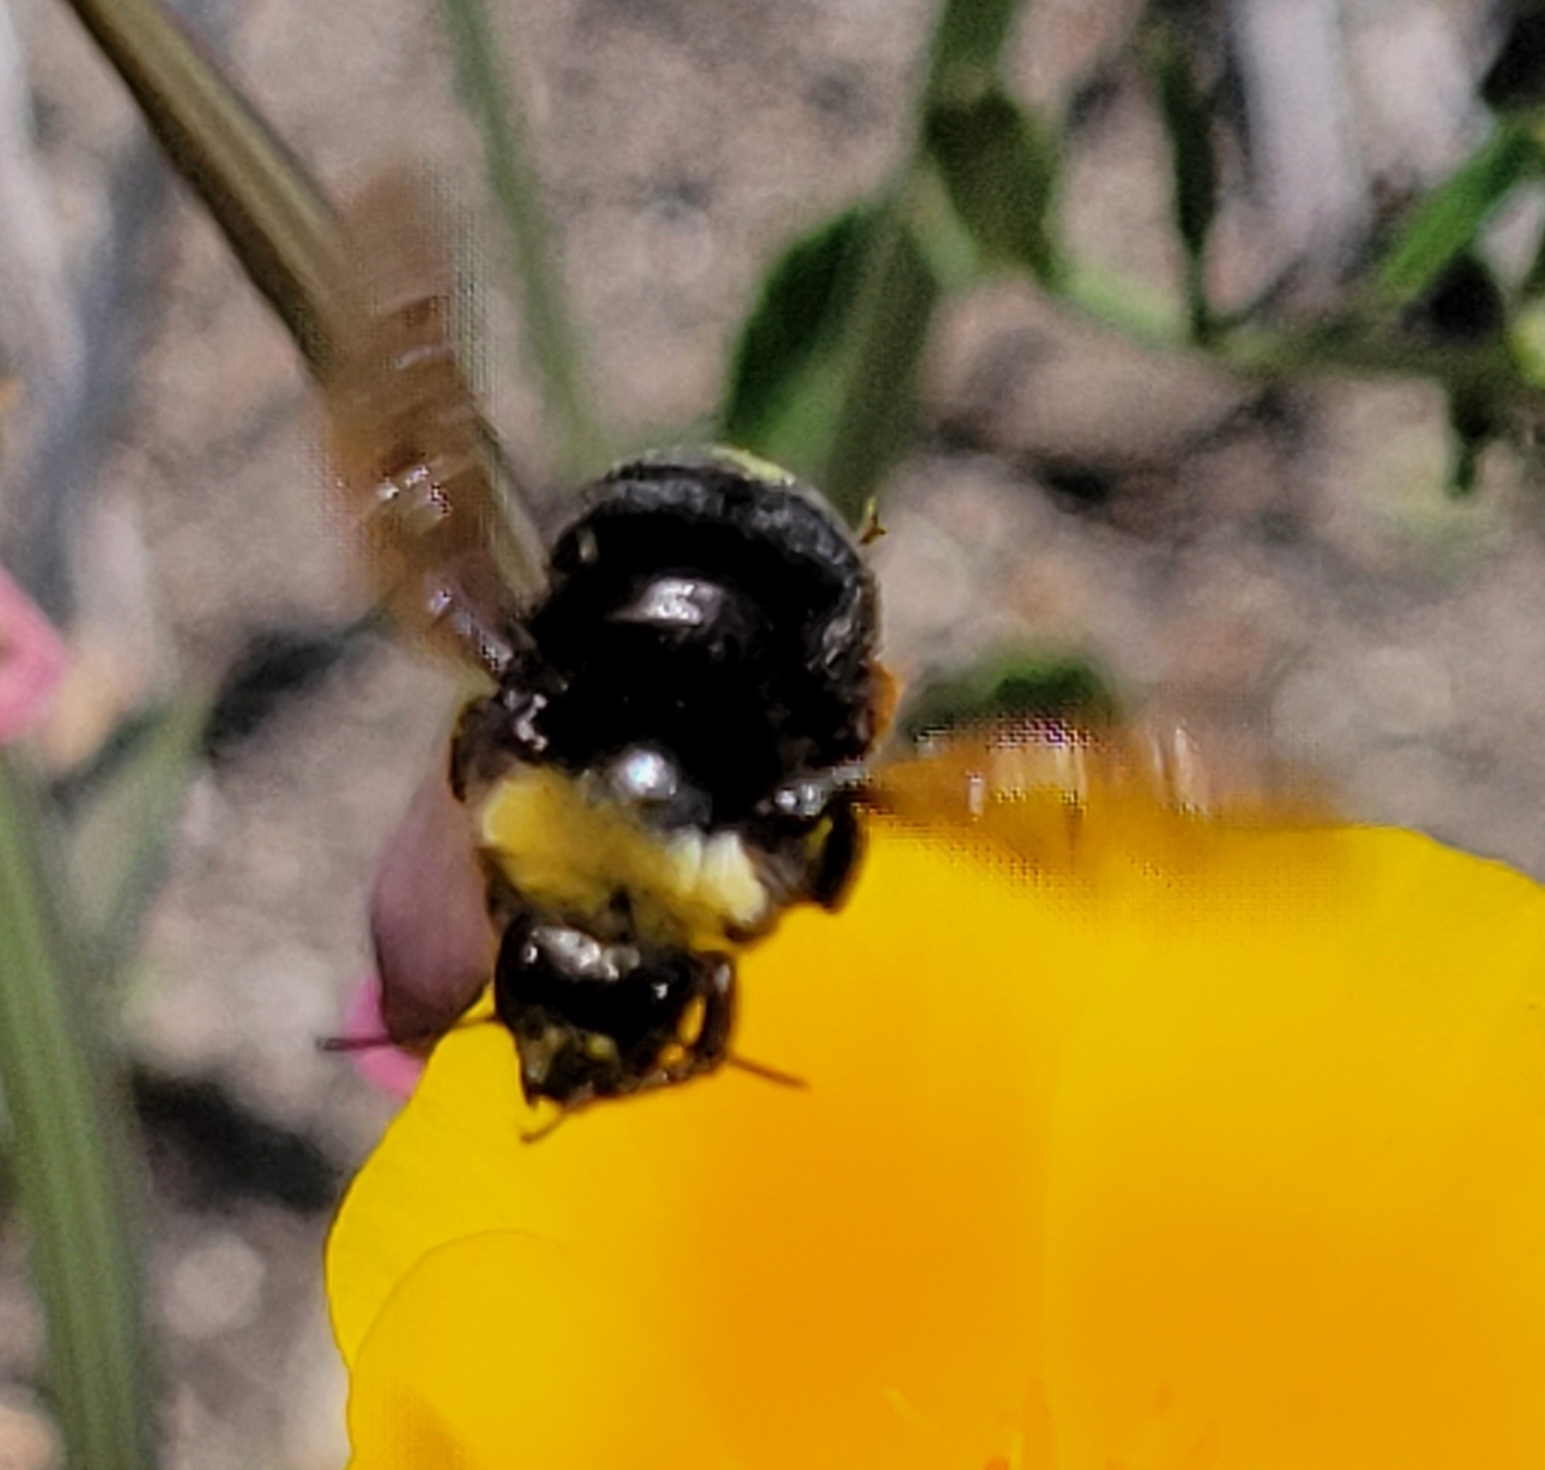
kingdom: Animalia
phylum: Arthropoda
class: Insecta
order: Hymenoptera
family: Apidae
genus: Bombus
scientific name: Bombus californicus
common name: California bumble bee
